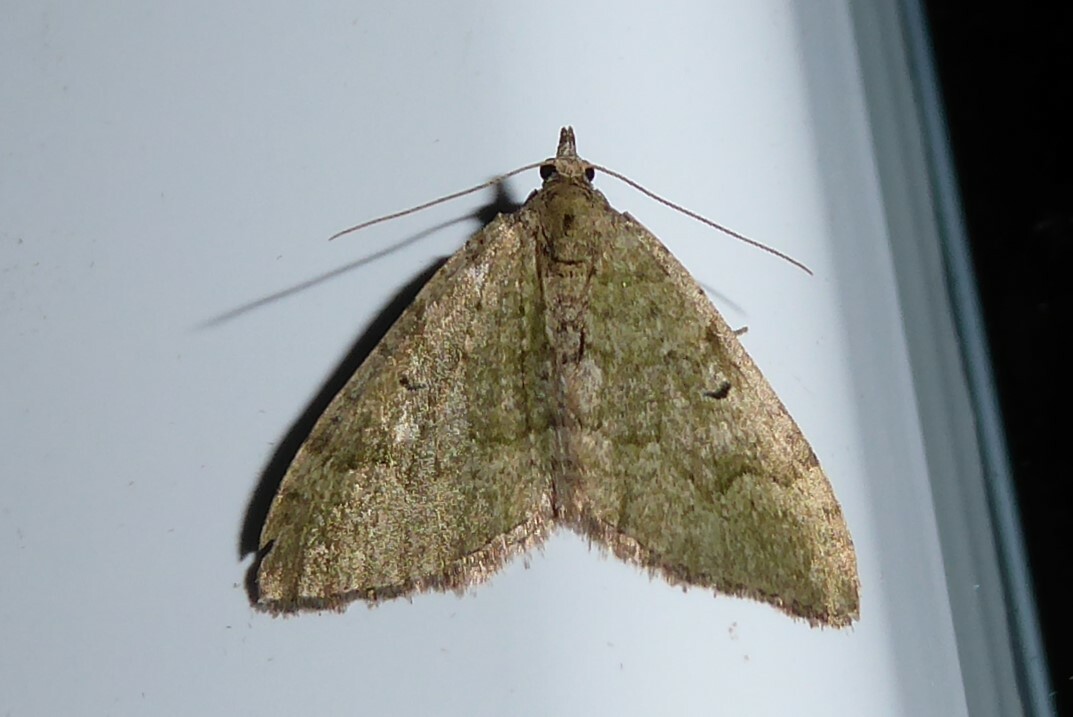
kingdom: Animalia
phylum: Arthropoda
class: Insecta
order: Lepidoptera
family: Geometridae
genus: Epyaxa
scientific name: Epyaxa rosearia
